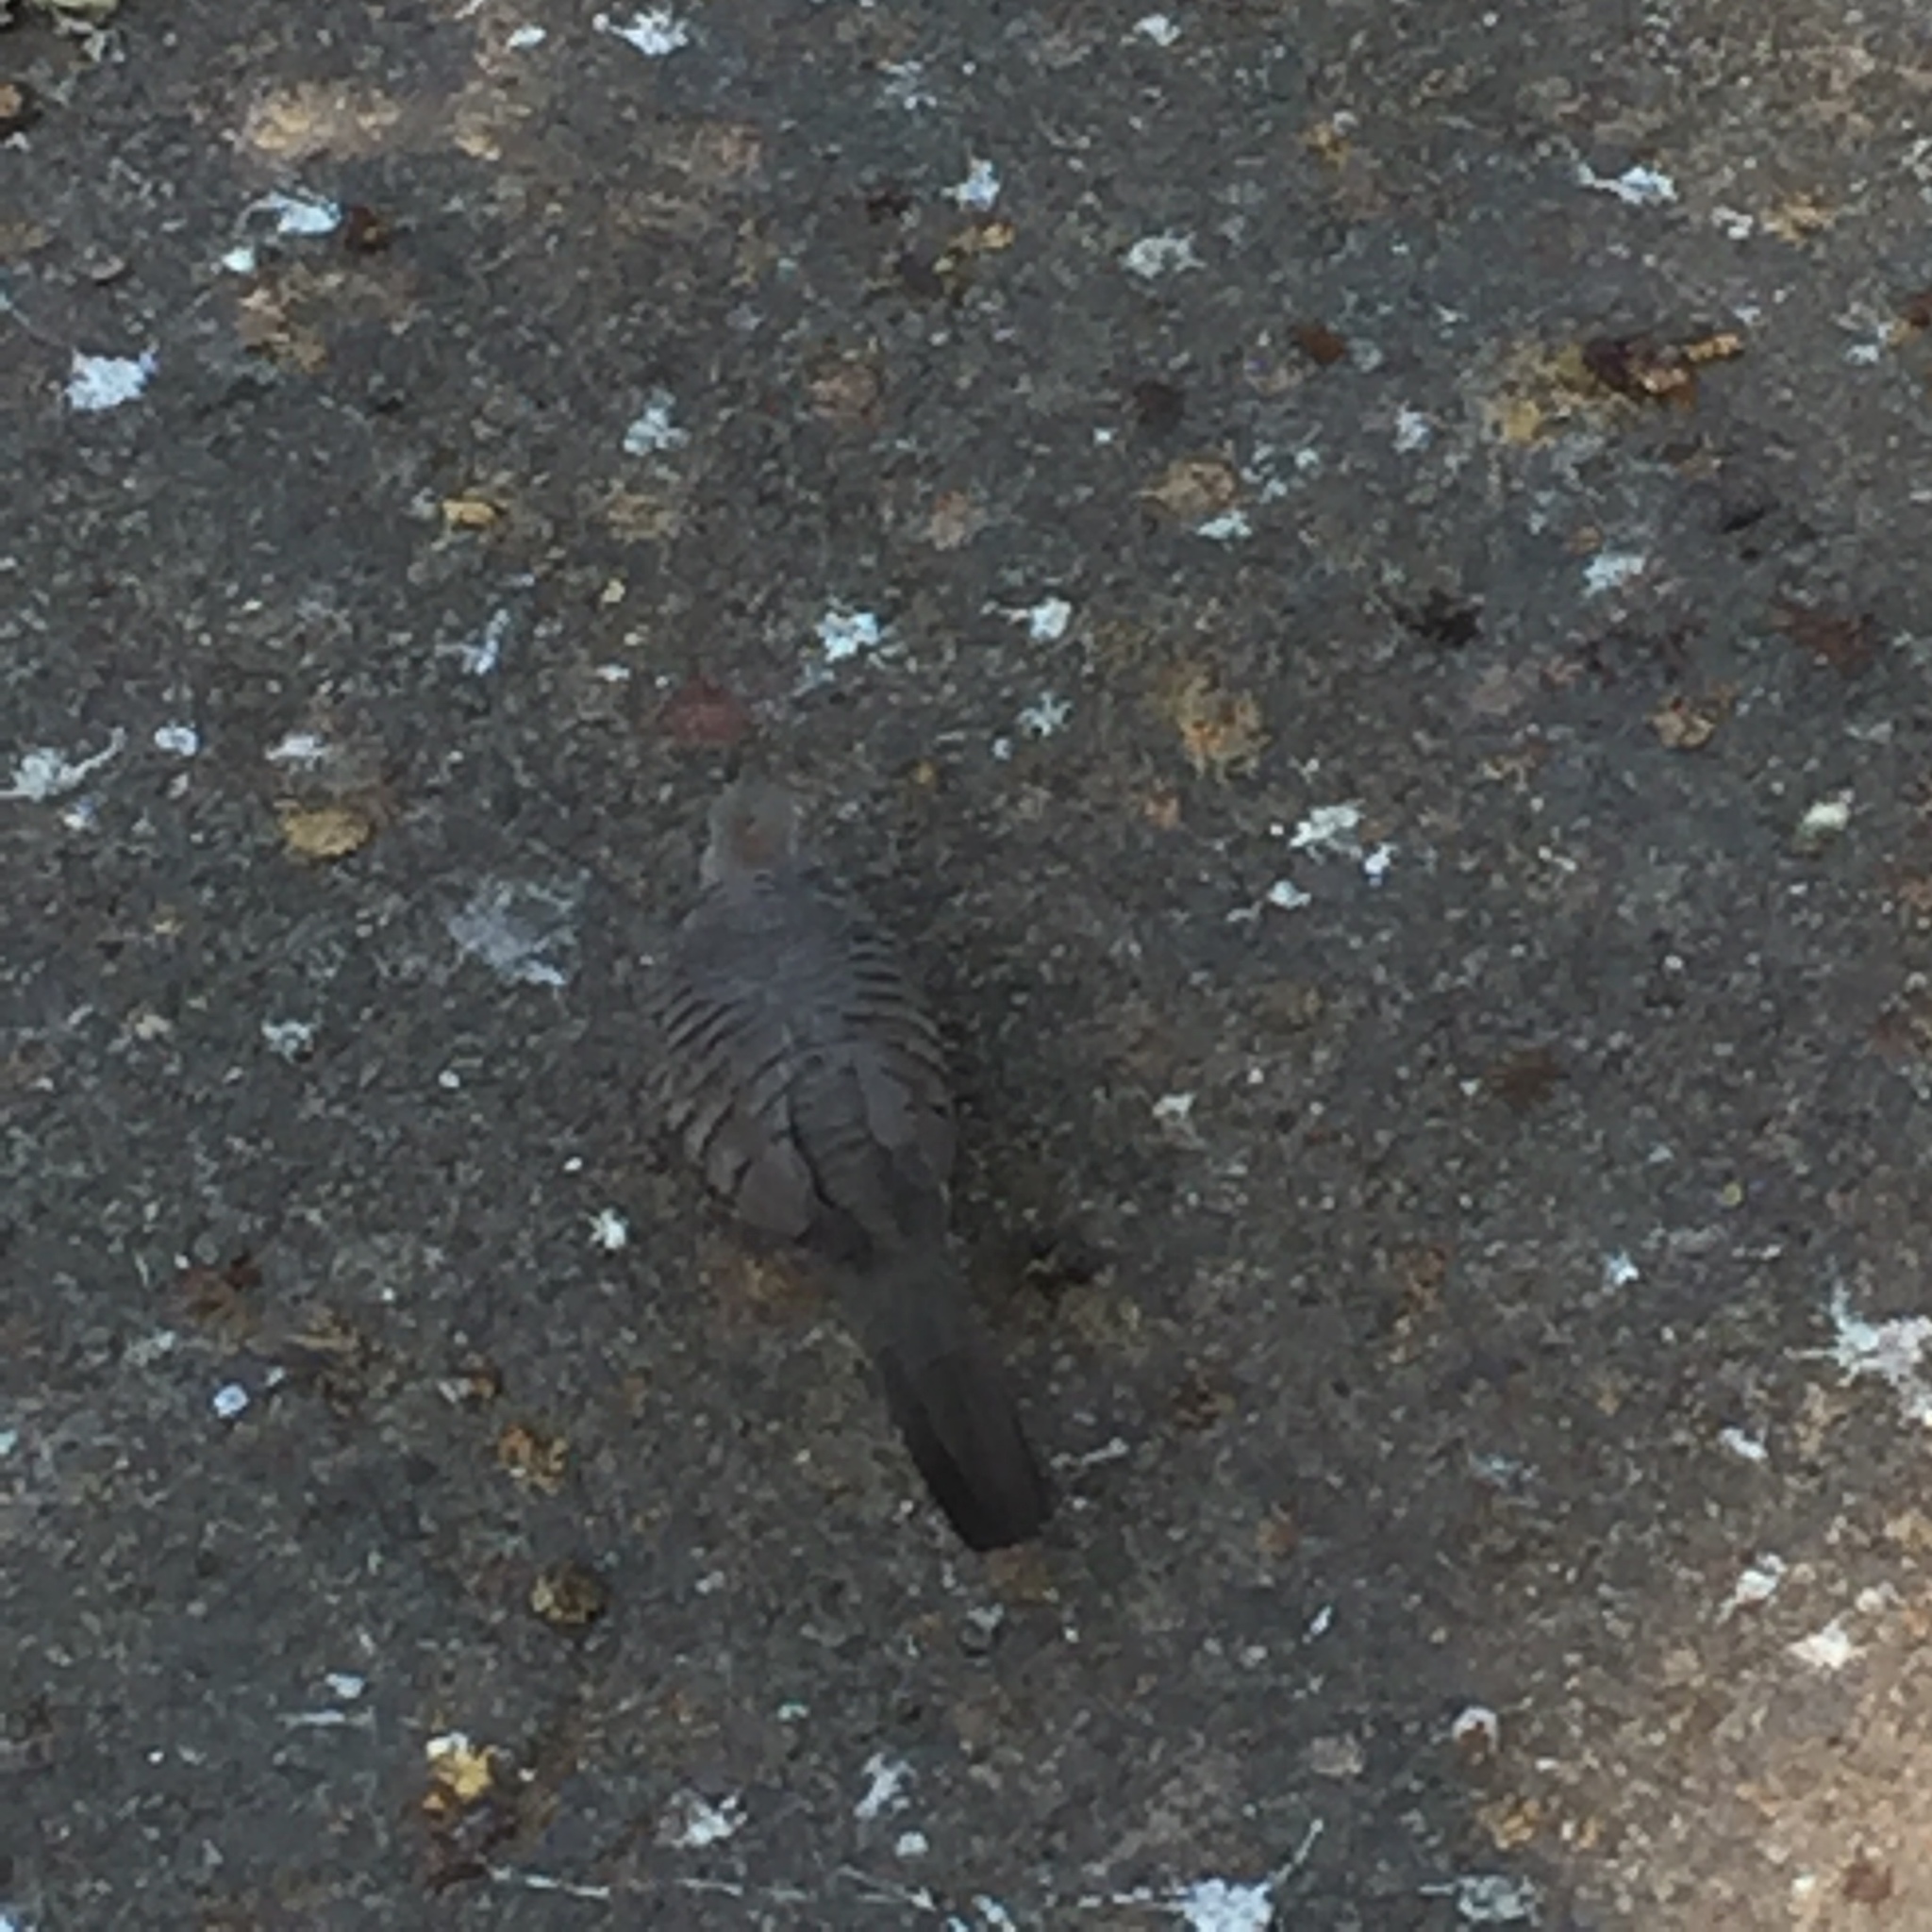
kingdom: Animalia
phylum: Chordata
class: Aves
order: Columbiformes
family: Columbidae
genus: Geopelia
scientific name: Geopelia striata
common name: Zebra dove
